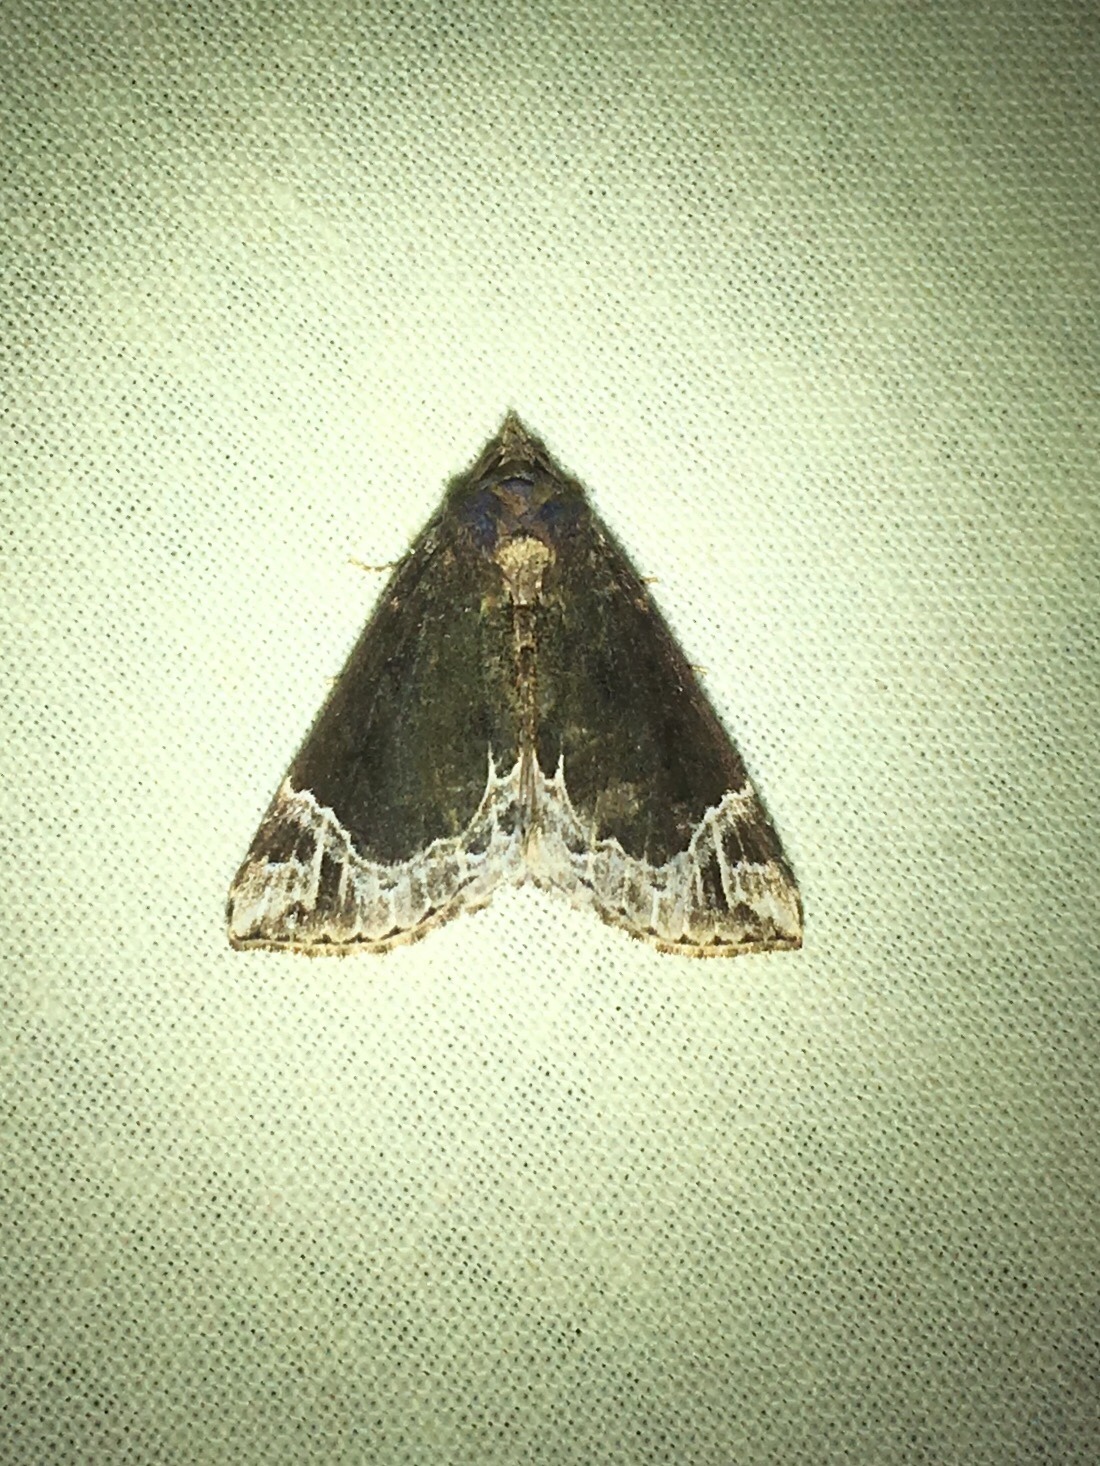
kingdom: Animalia
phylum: Arthropoda
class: Insecta
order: Lepidoptera
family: Erebidae
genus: Hypena
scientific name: Hypena abalienalis
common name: White-lined snout
